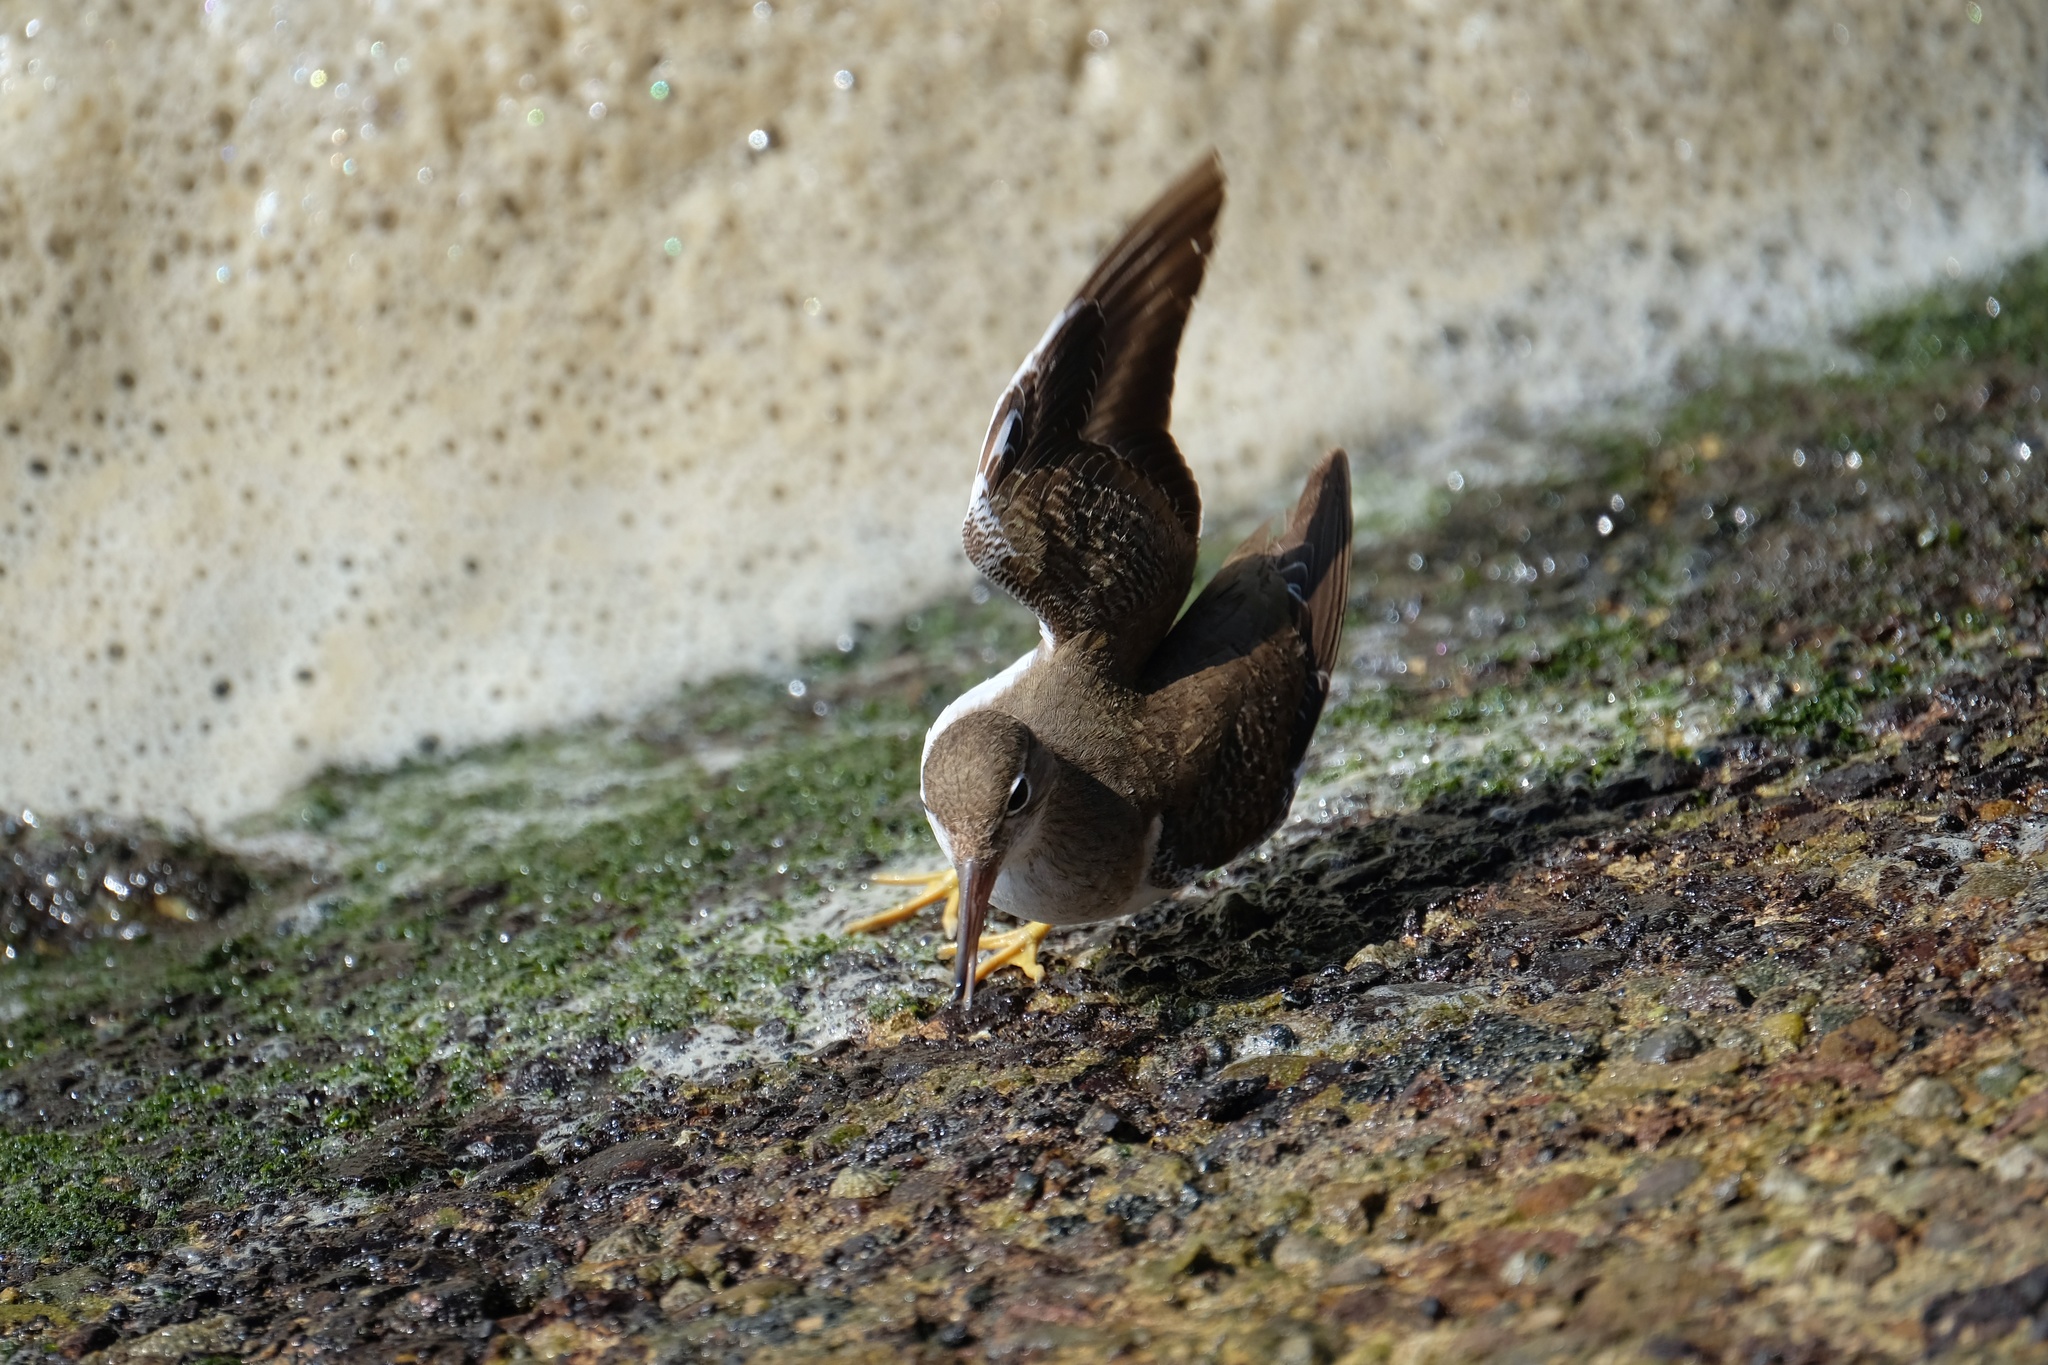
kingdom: Animalia
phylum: Chordata
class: Aves
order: Charadriiformes
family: Scolopacidae
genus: Actitis
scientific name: Actitis macularius
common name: Spotted sandpiper
